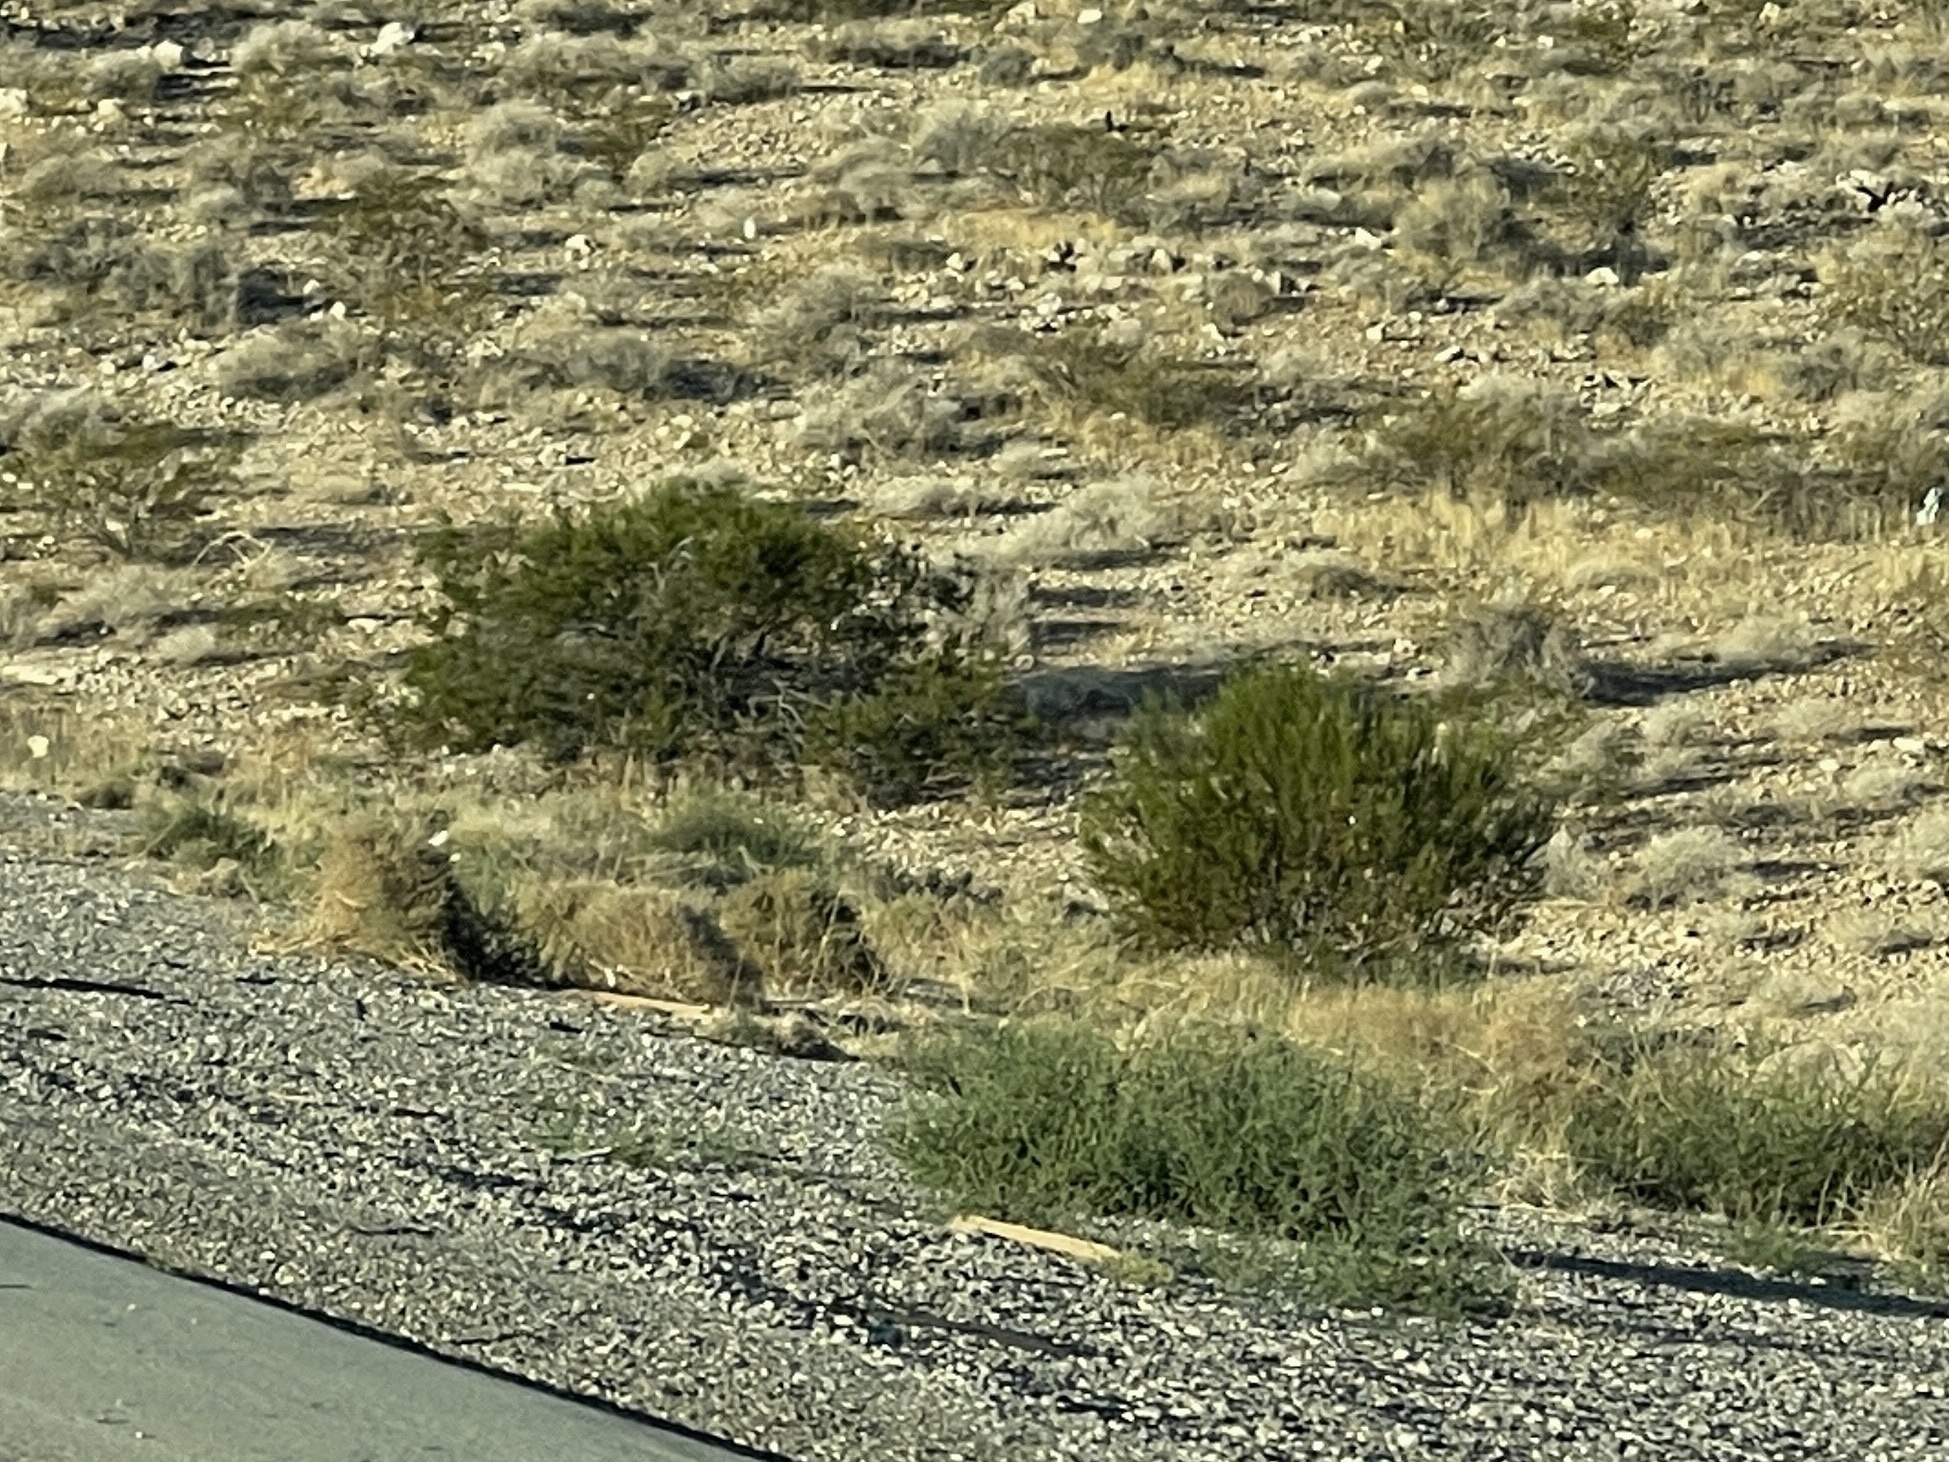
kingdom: Plantae
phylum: Tracheophyta
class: Magnoliopsida
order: Zygophyllales
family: Zygophyllaceae
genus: Larrea
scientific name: Larrea tridentata
